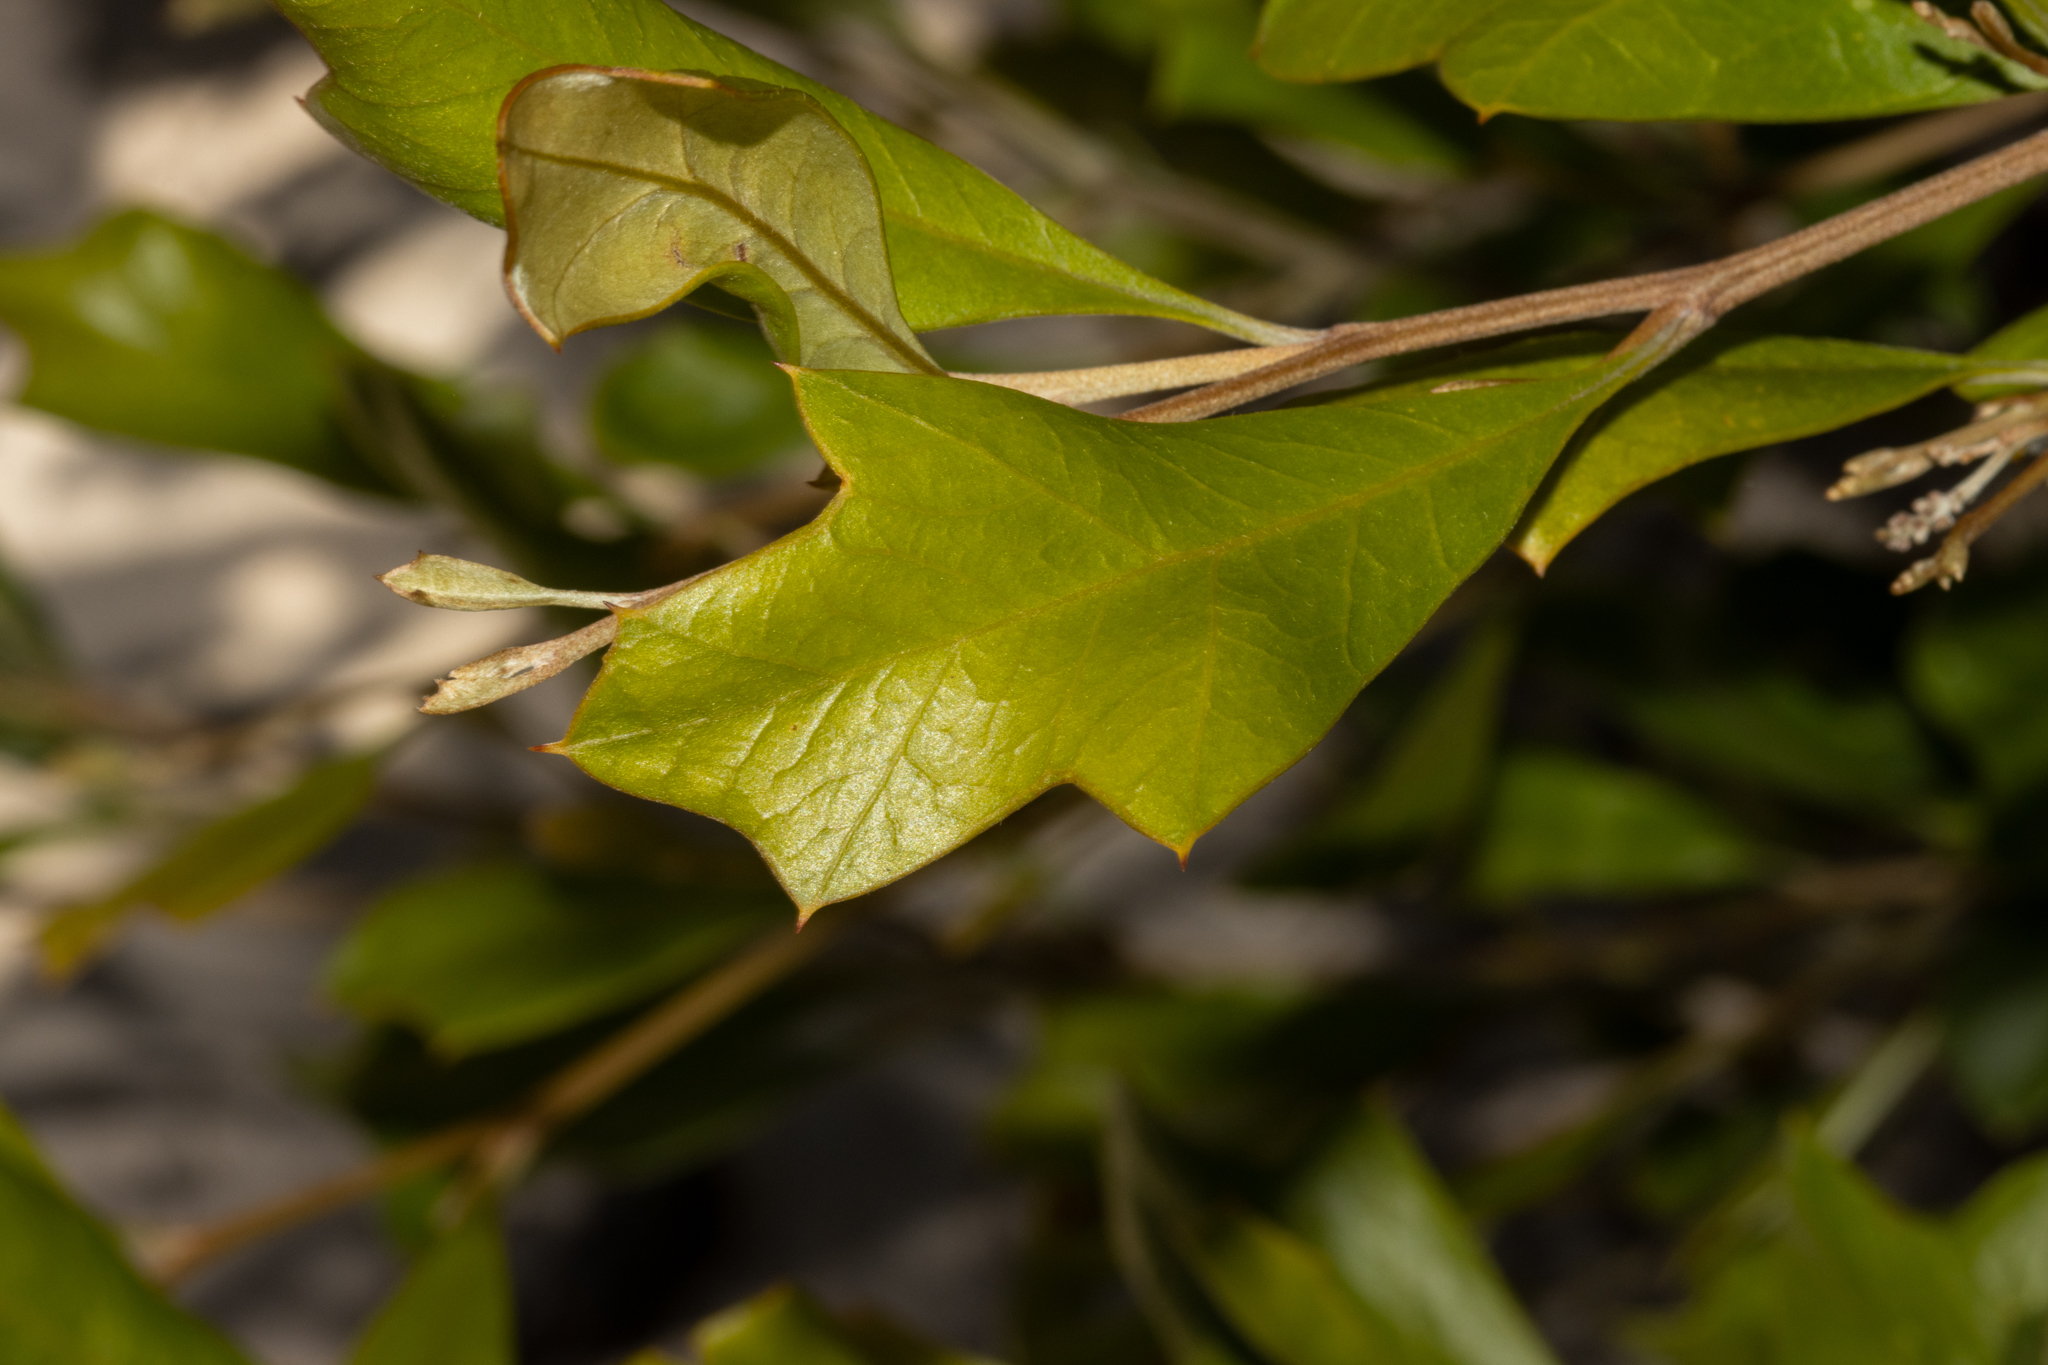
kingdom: Plantae
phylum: Tracheophyta
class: Magnoliopsida
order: Proteales
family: Proteaceae
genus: Grevillea
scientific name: Grevillea ilicifolia
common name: Holly grevillea
